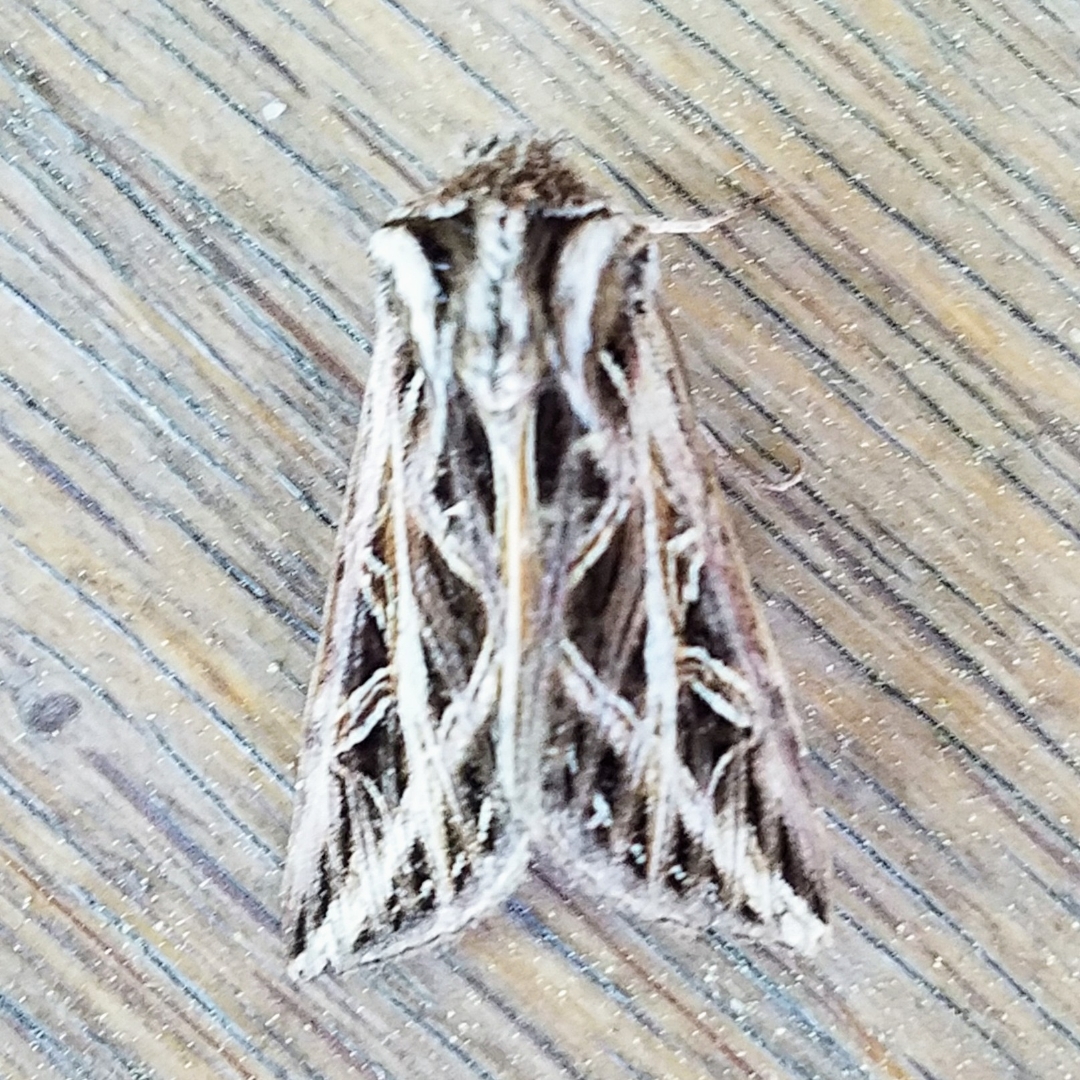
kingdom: Animalia
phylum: Arthropoda
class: Insecta
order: Lepidoptera
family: Noctuidae
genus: Dargida
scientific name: Dargida procinctus
